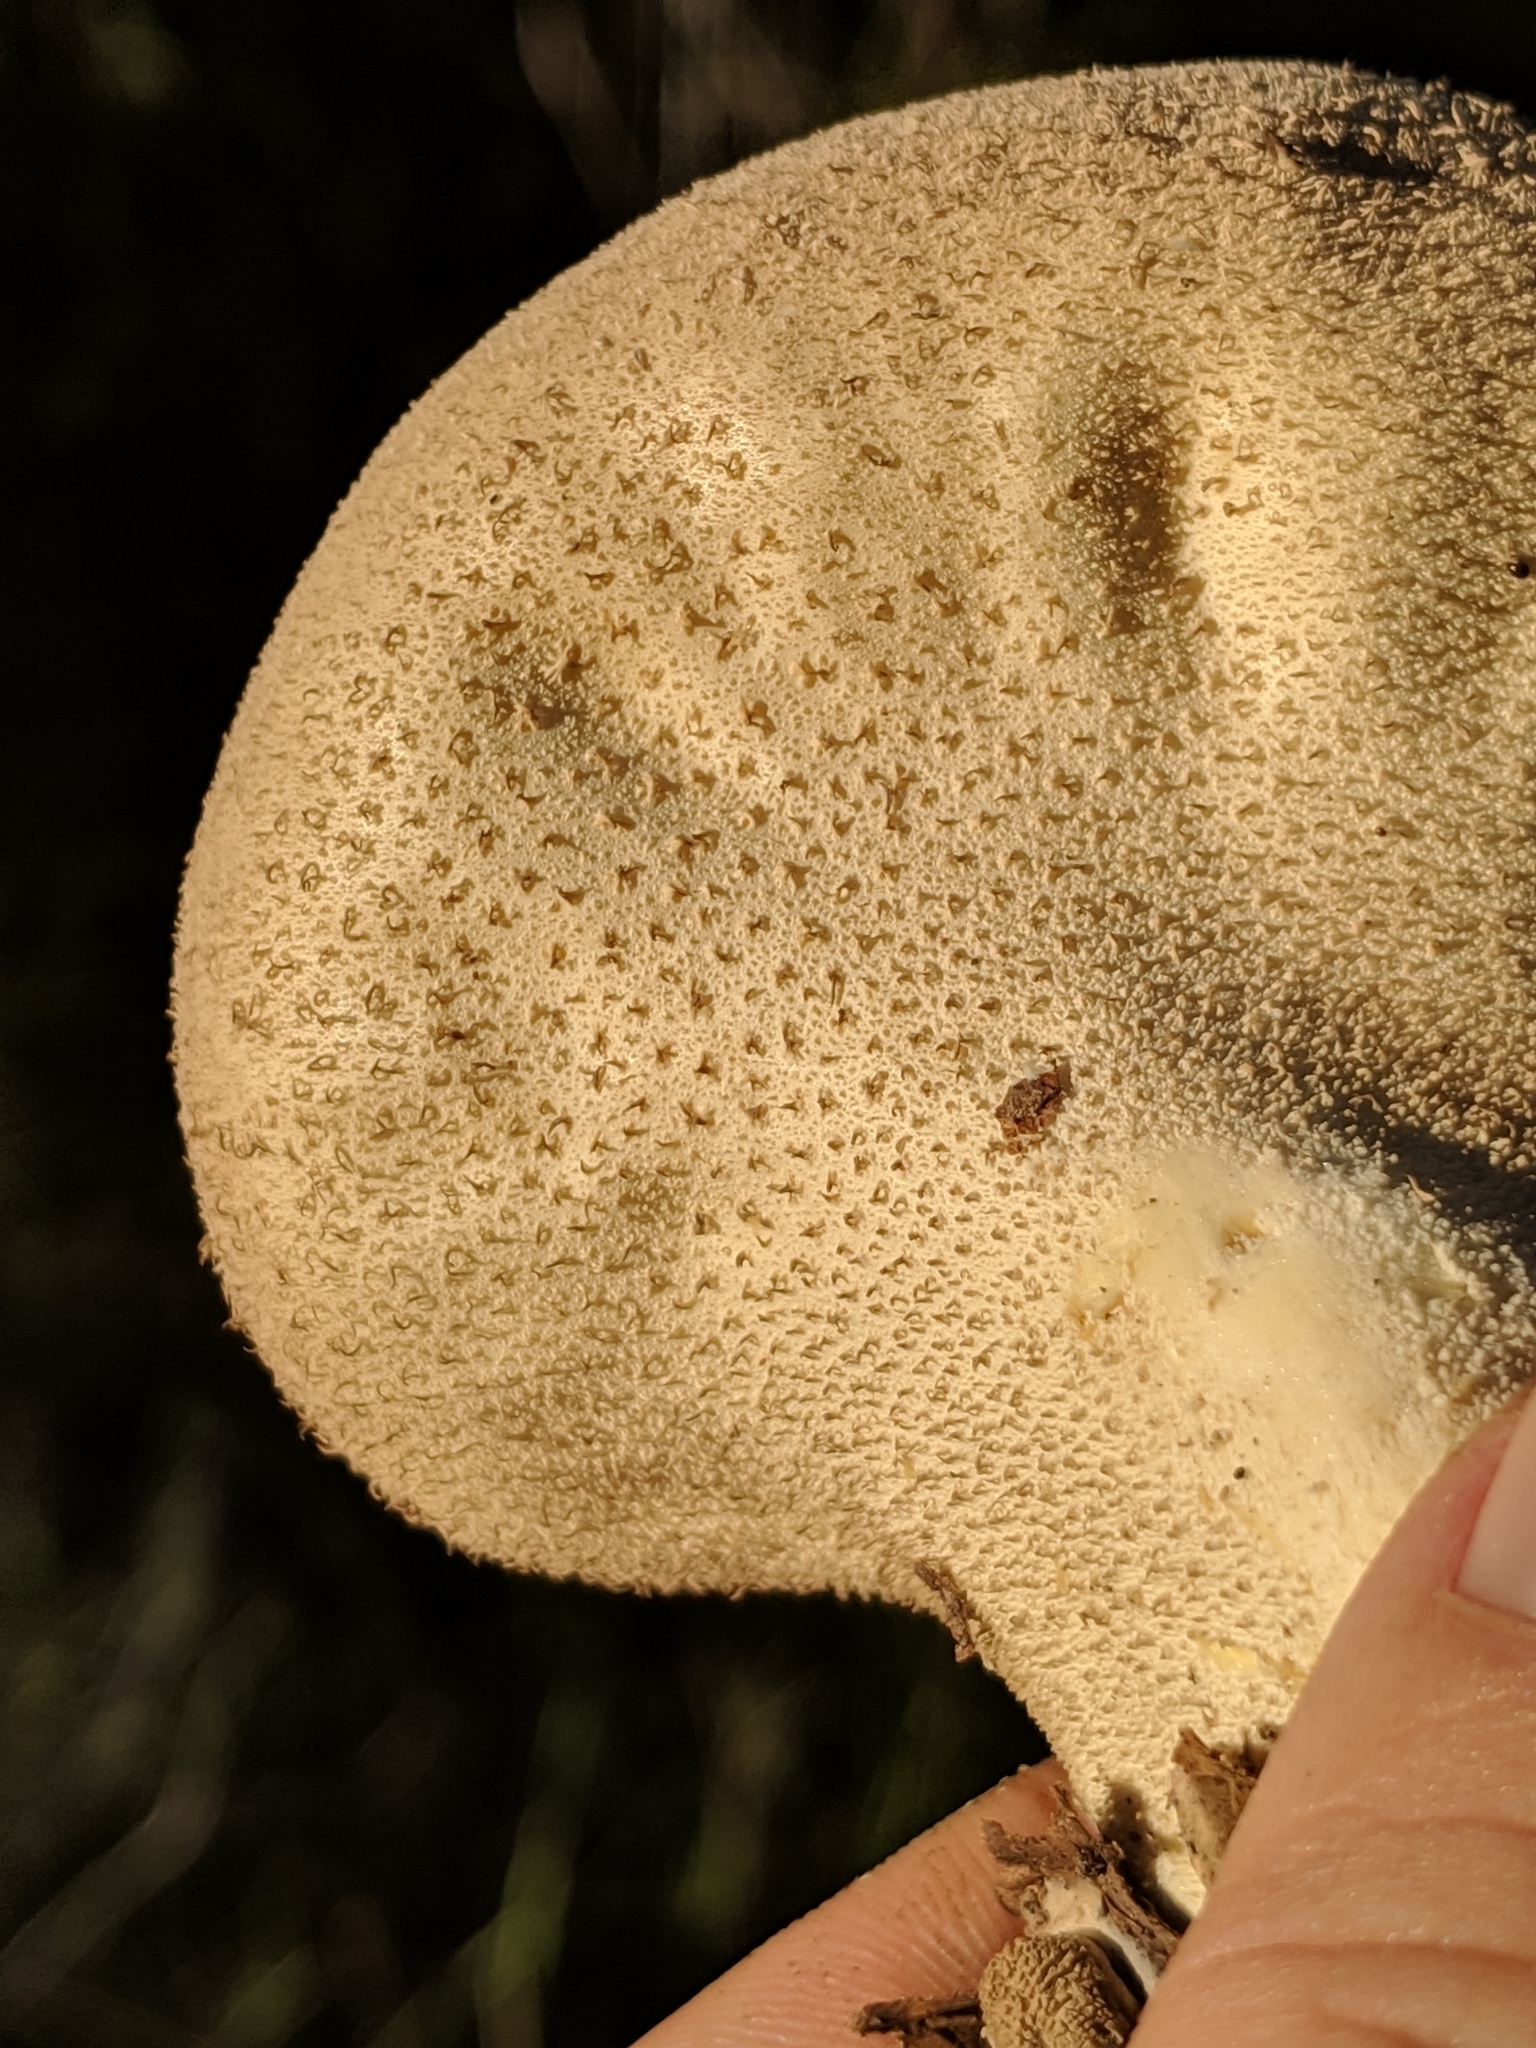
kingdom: Fungi
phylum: Basidiomycota
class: Agaricomycetes
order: Agaricales
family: Lycoperdaceae
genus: Lycoperdon
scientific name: Lycoperdon perlatum
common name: Common puffball
